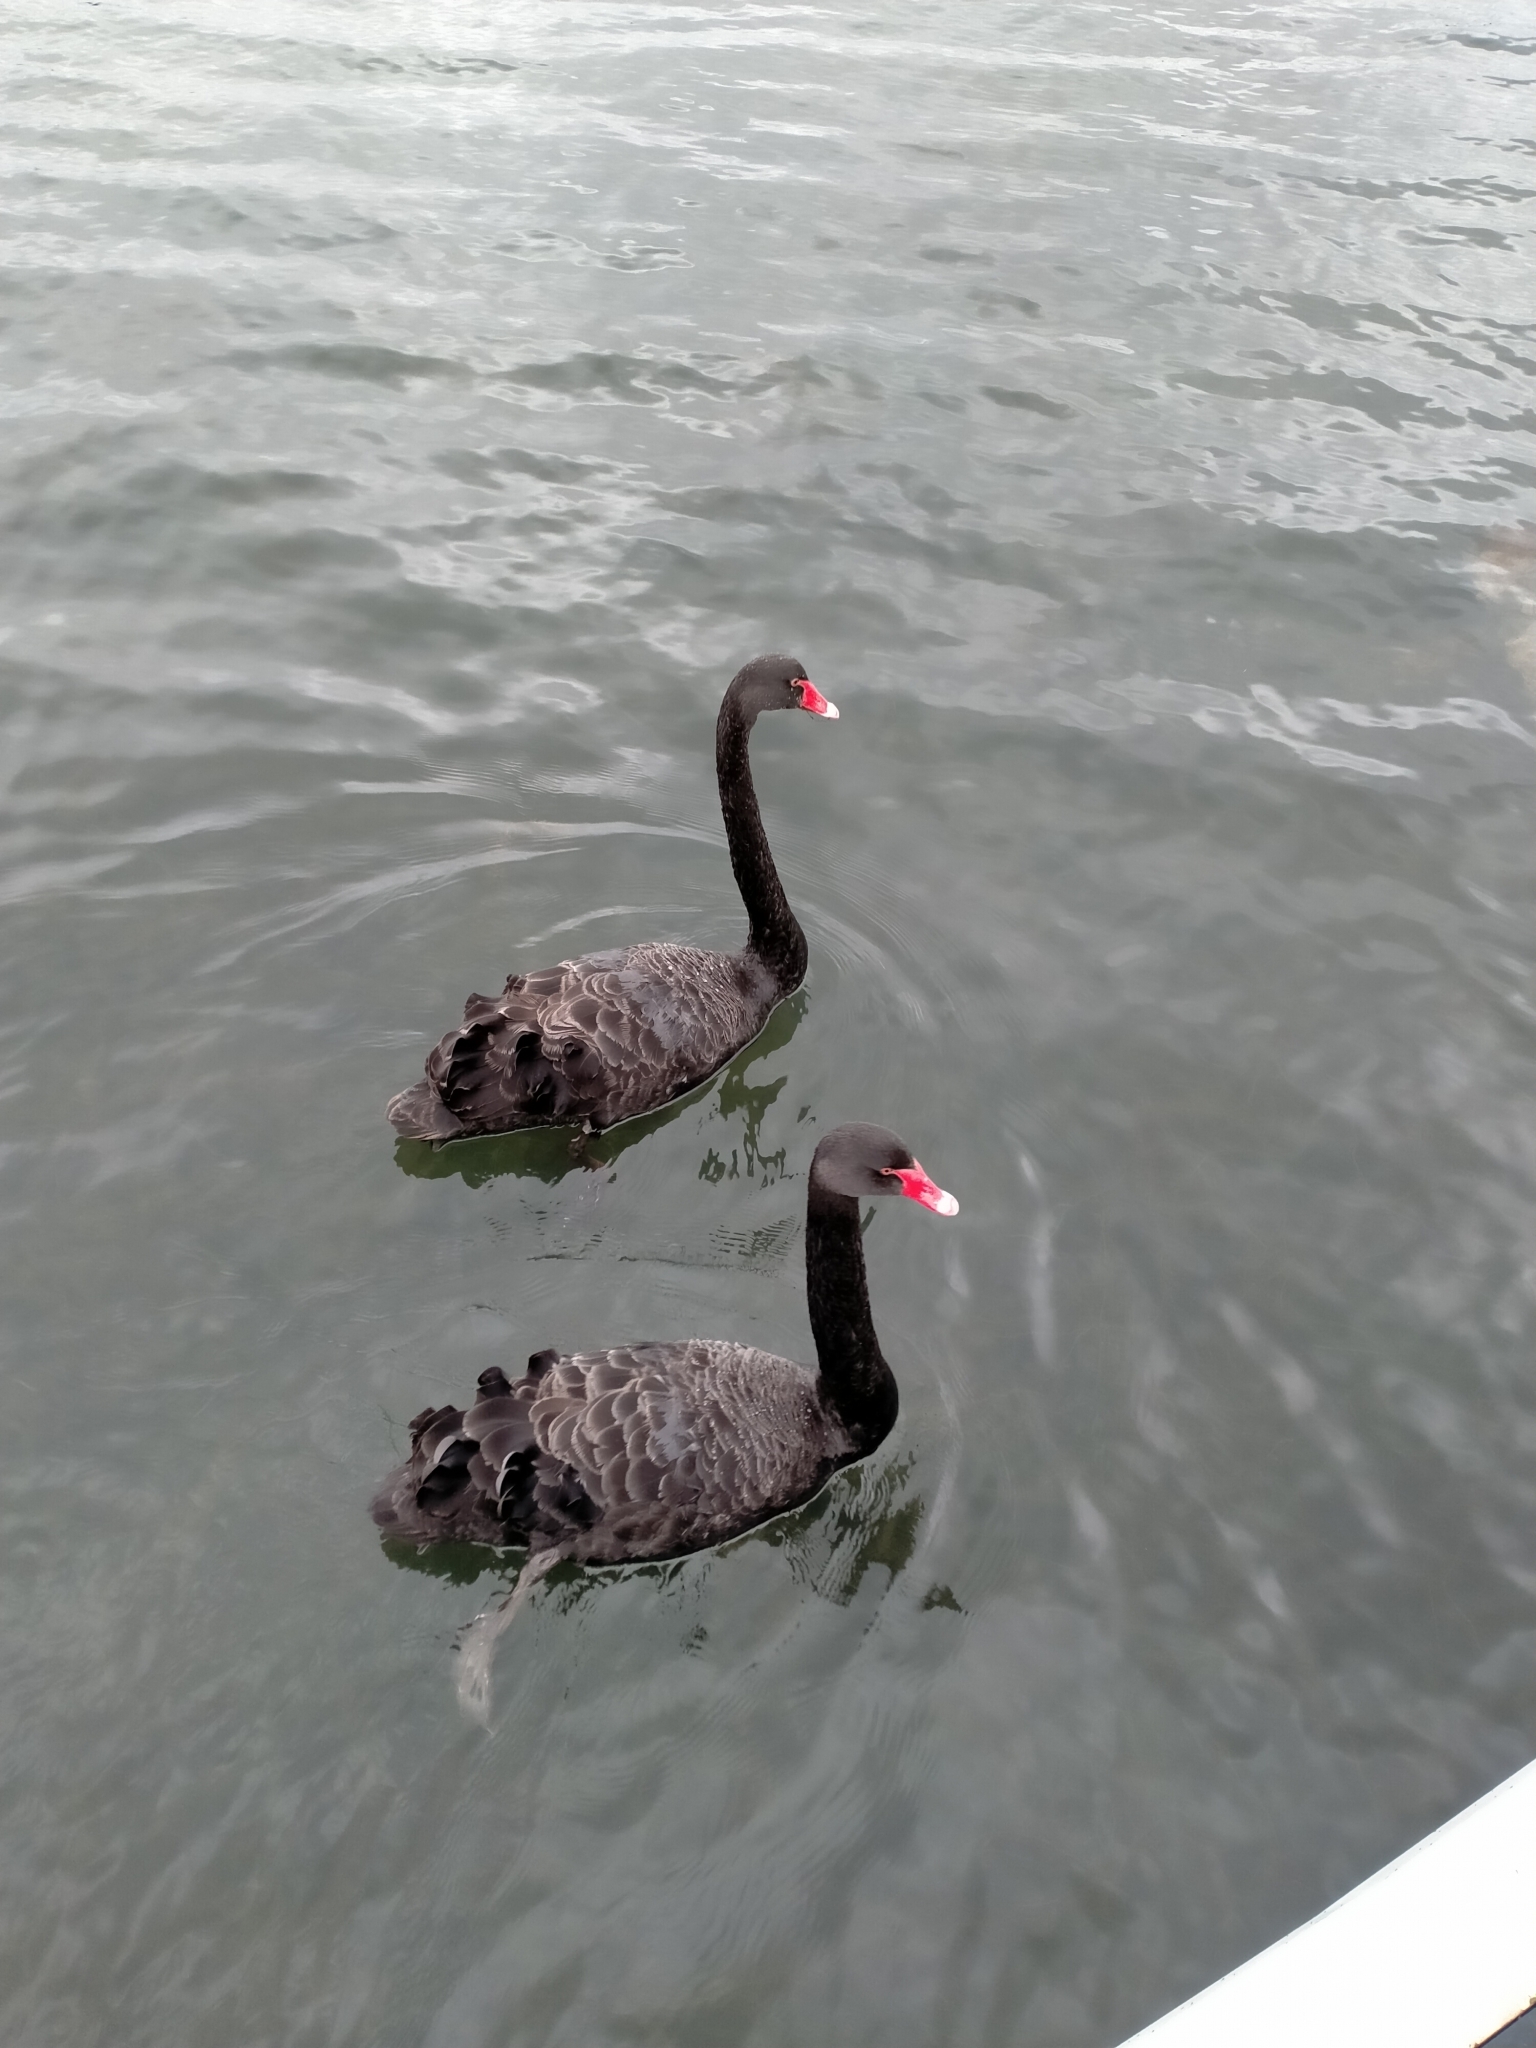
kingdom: Animalia
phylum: Chordata
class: Aves
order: Anseriformes
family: Anatidae
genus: Cygnus
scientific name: Cygnus atratus
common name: Black swan
